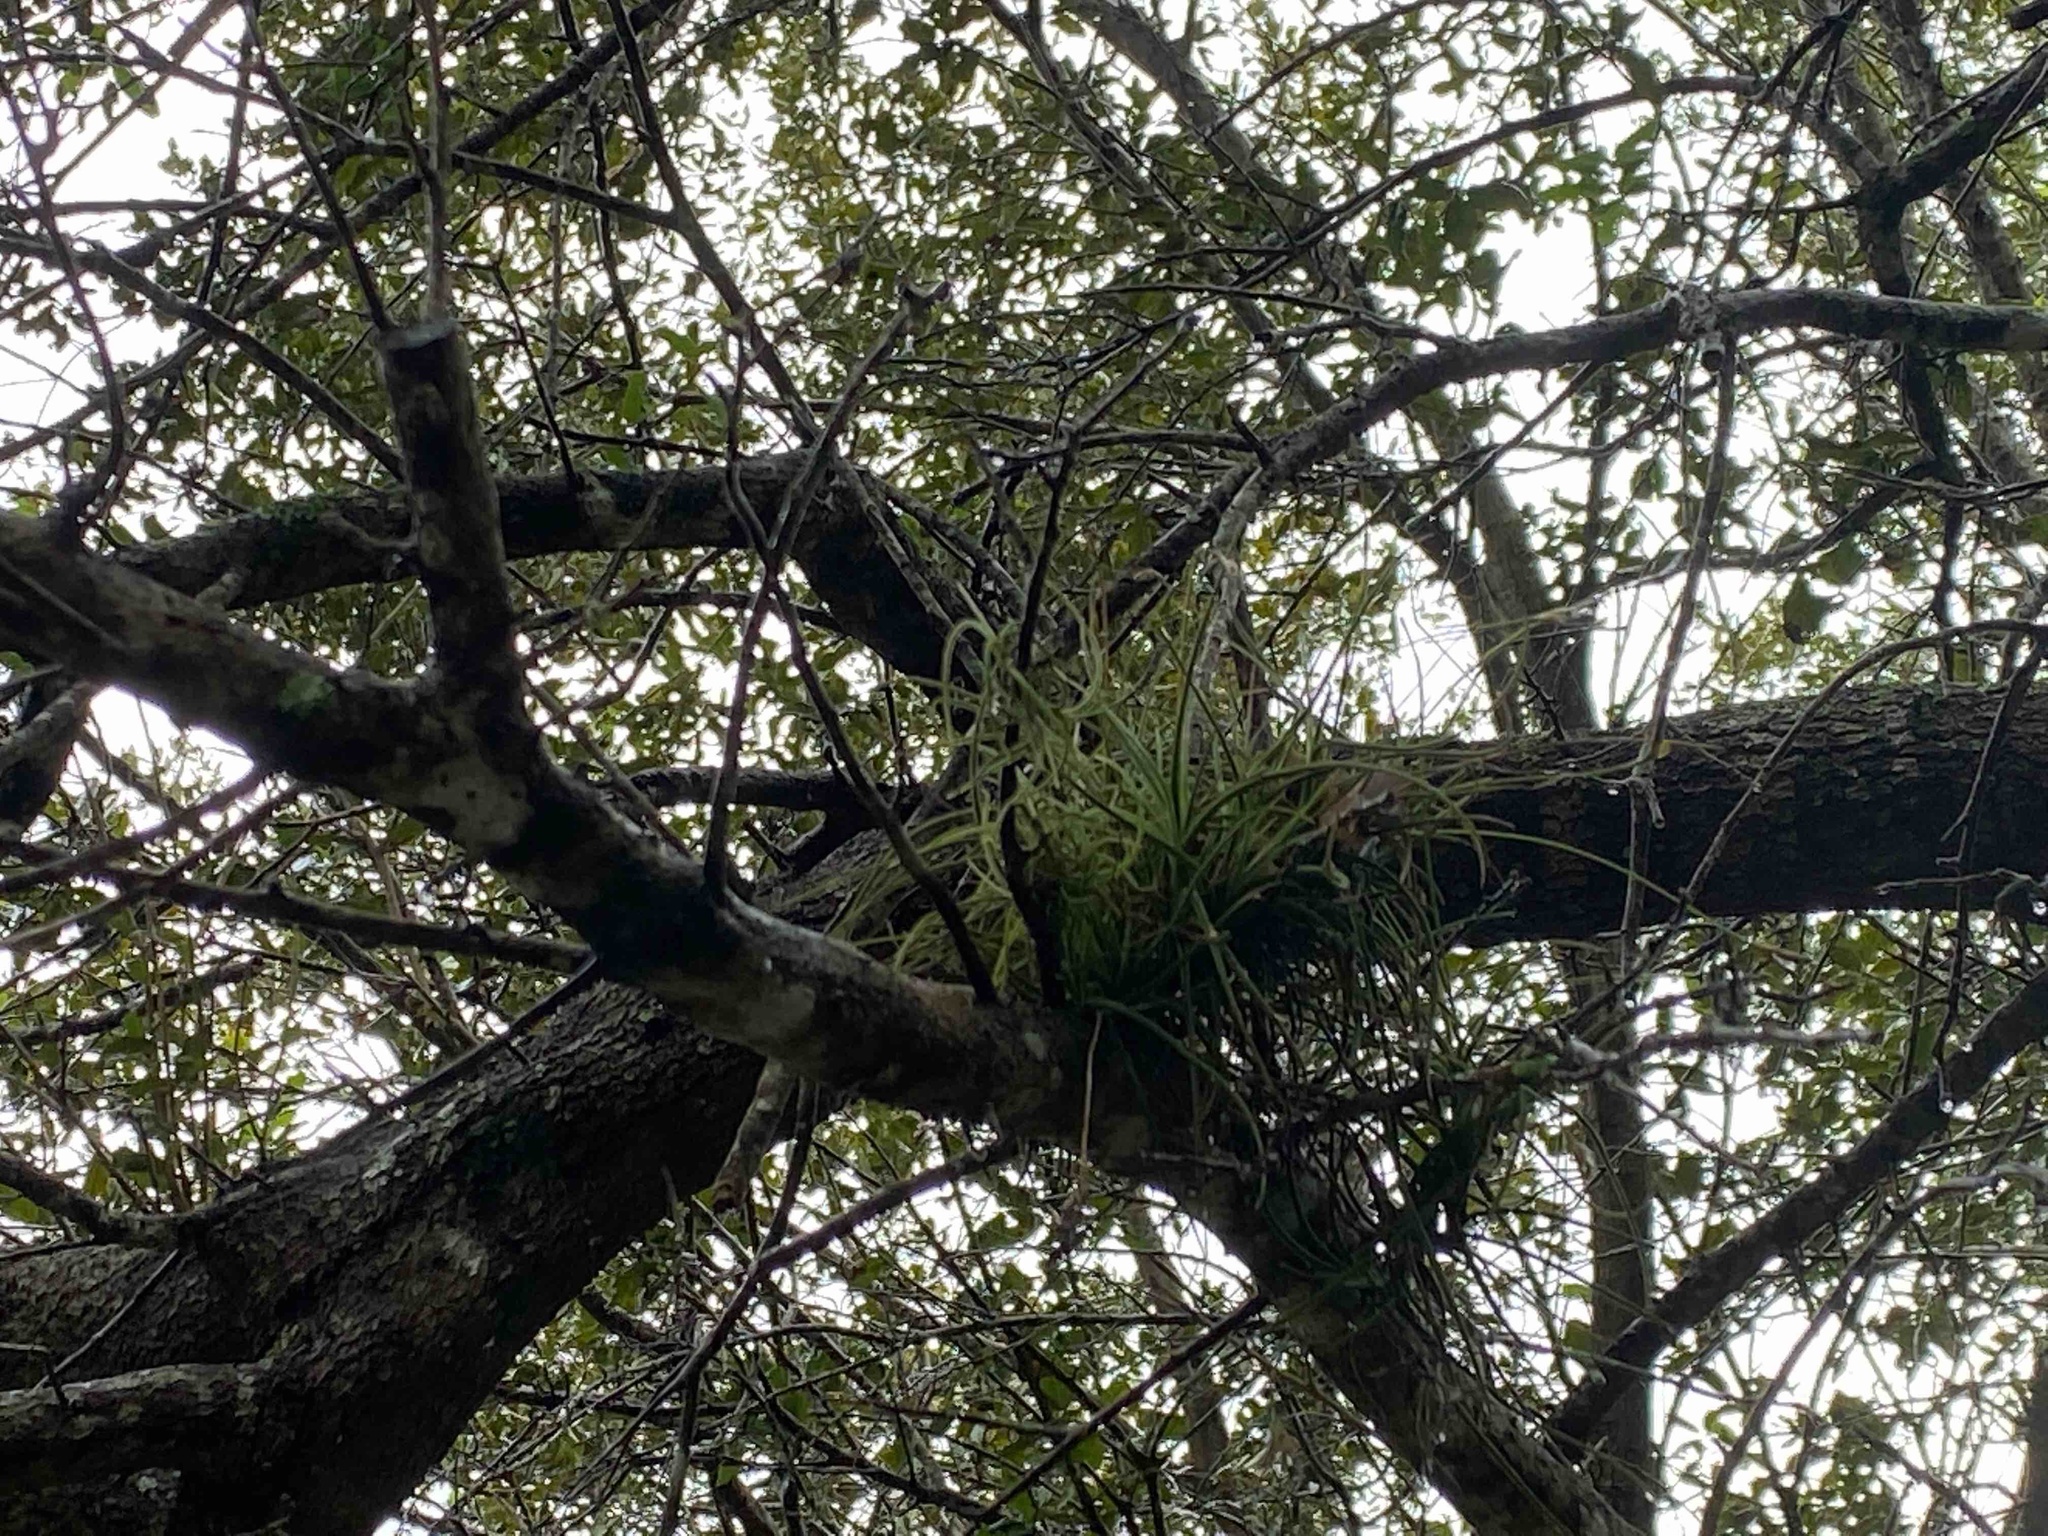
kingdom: Plantae
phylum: Tracheophyta
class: Liliopsida
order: Poales
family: Bromeliaceae
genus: Tillandsia
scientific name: Tillandsia recurvata
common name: Small ballmoss
